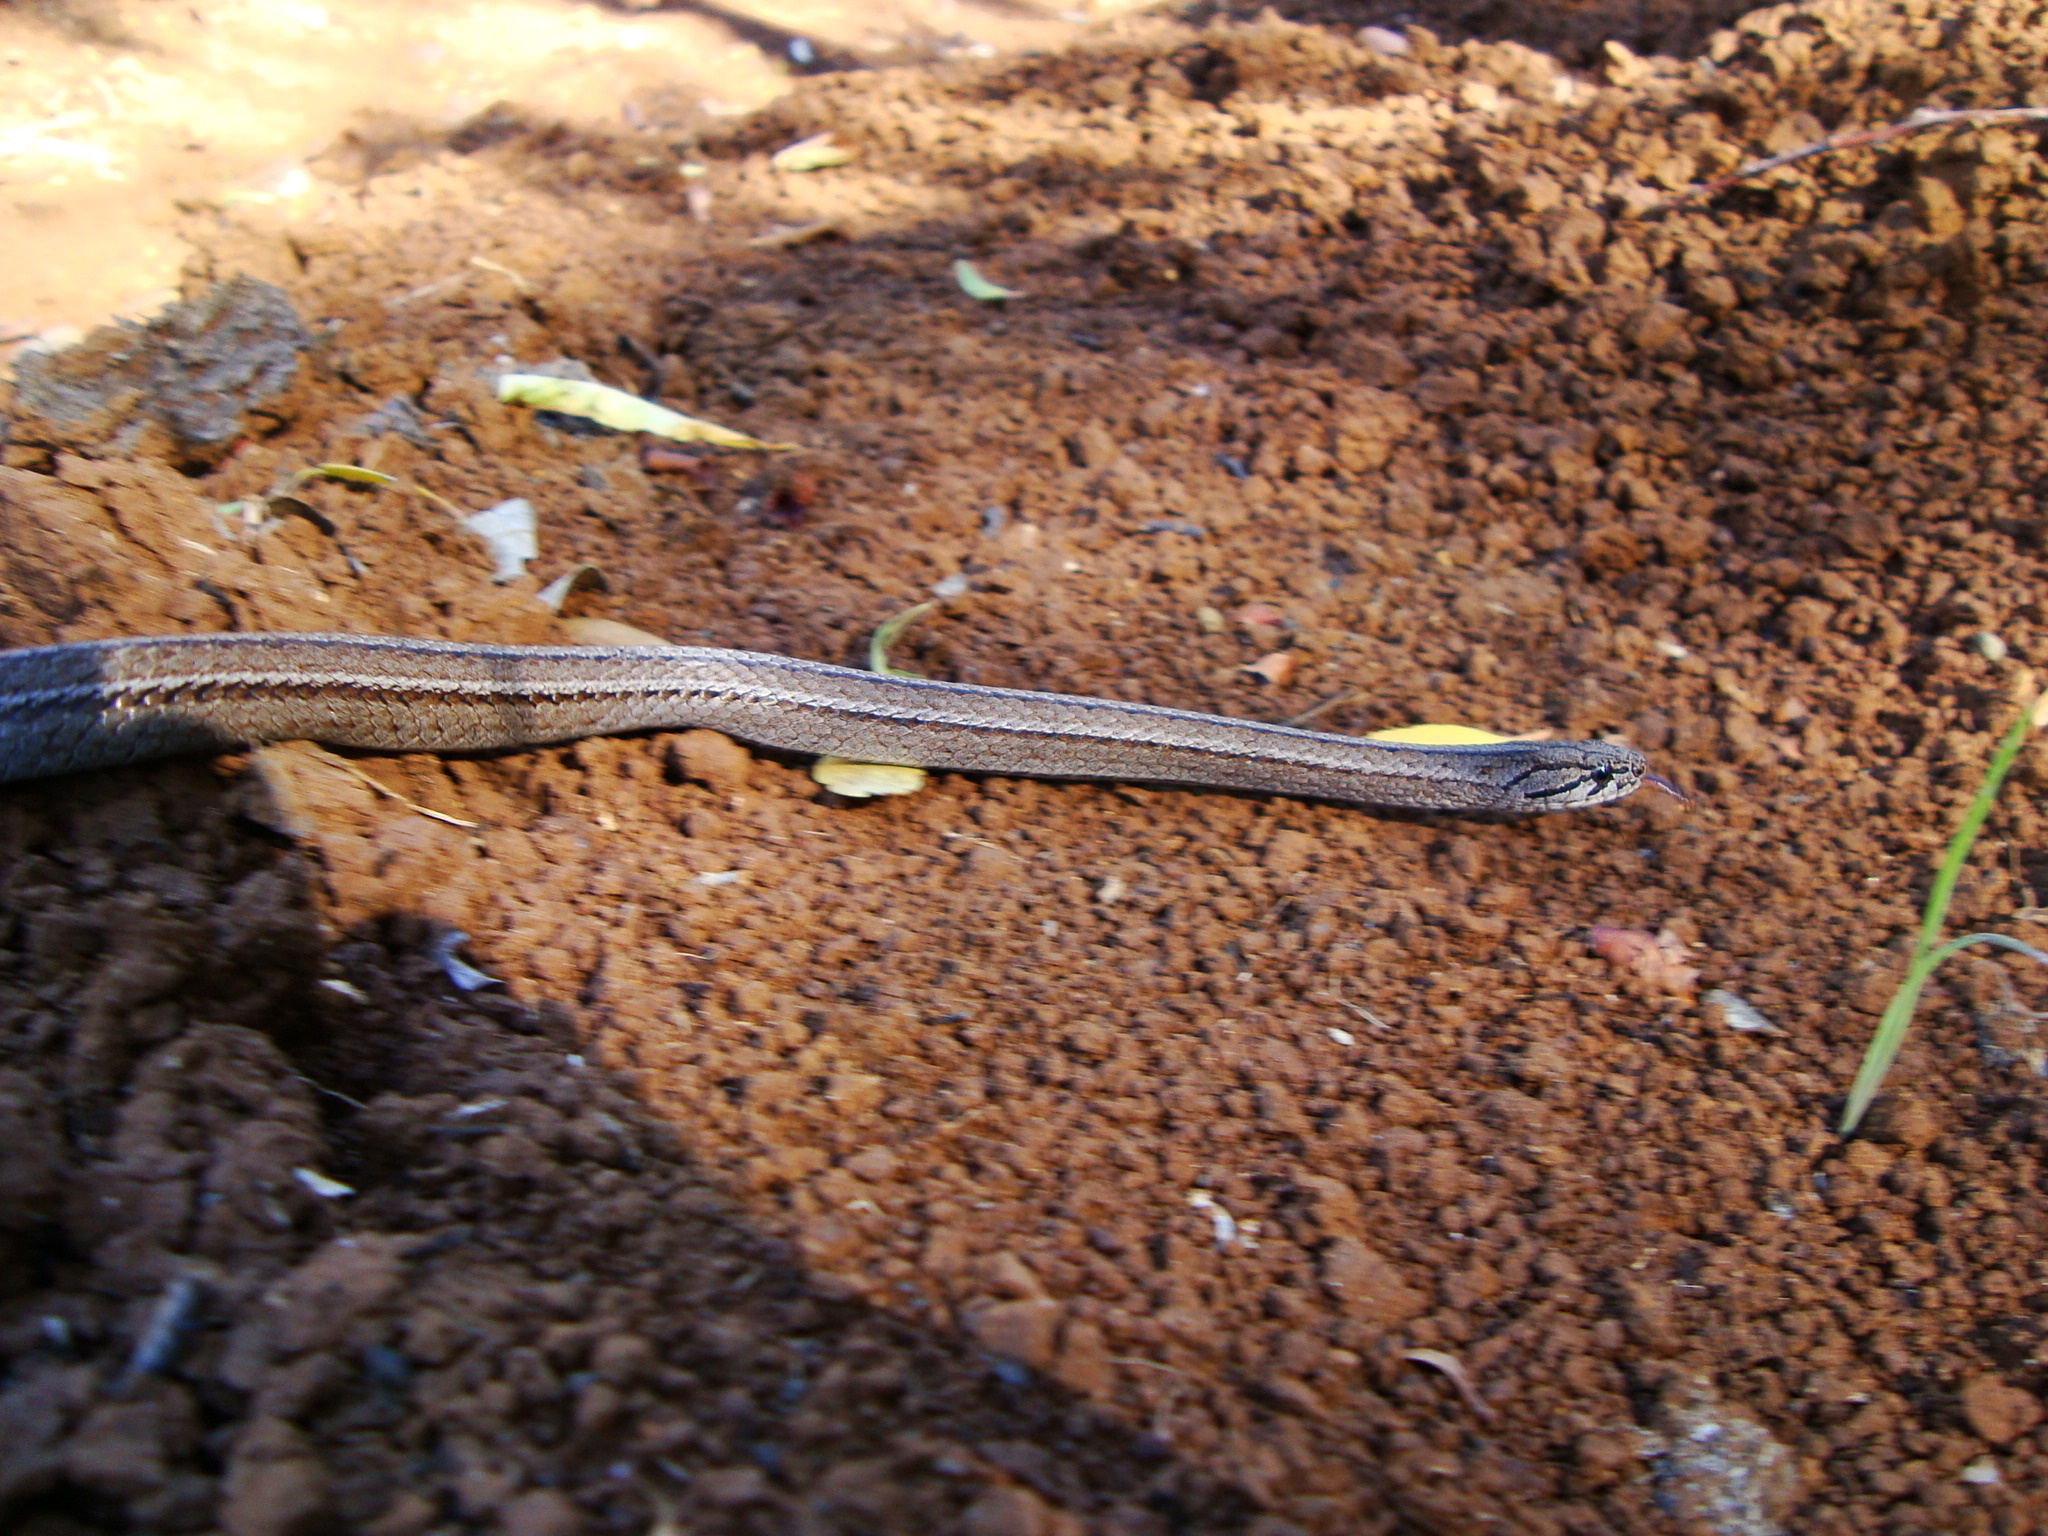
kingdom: Animalia
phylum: Chordata
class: Squamata
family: Colubridae
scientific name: Colubridae
